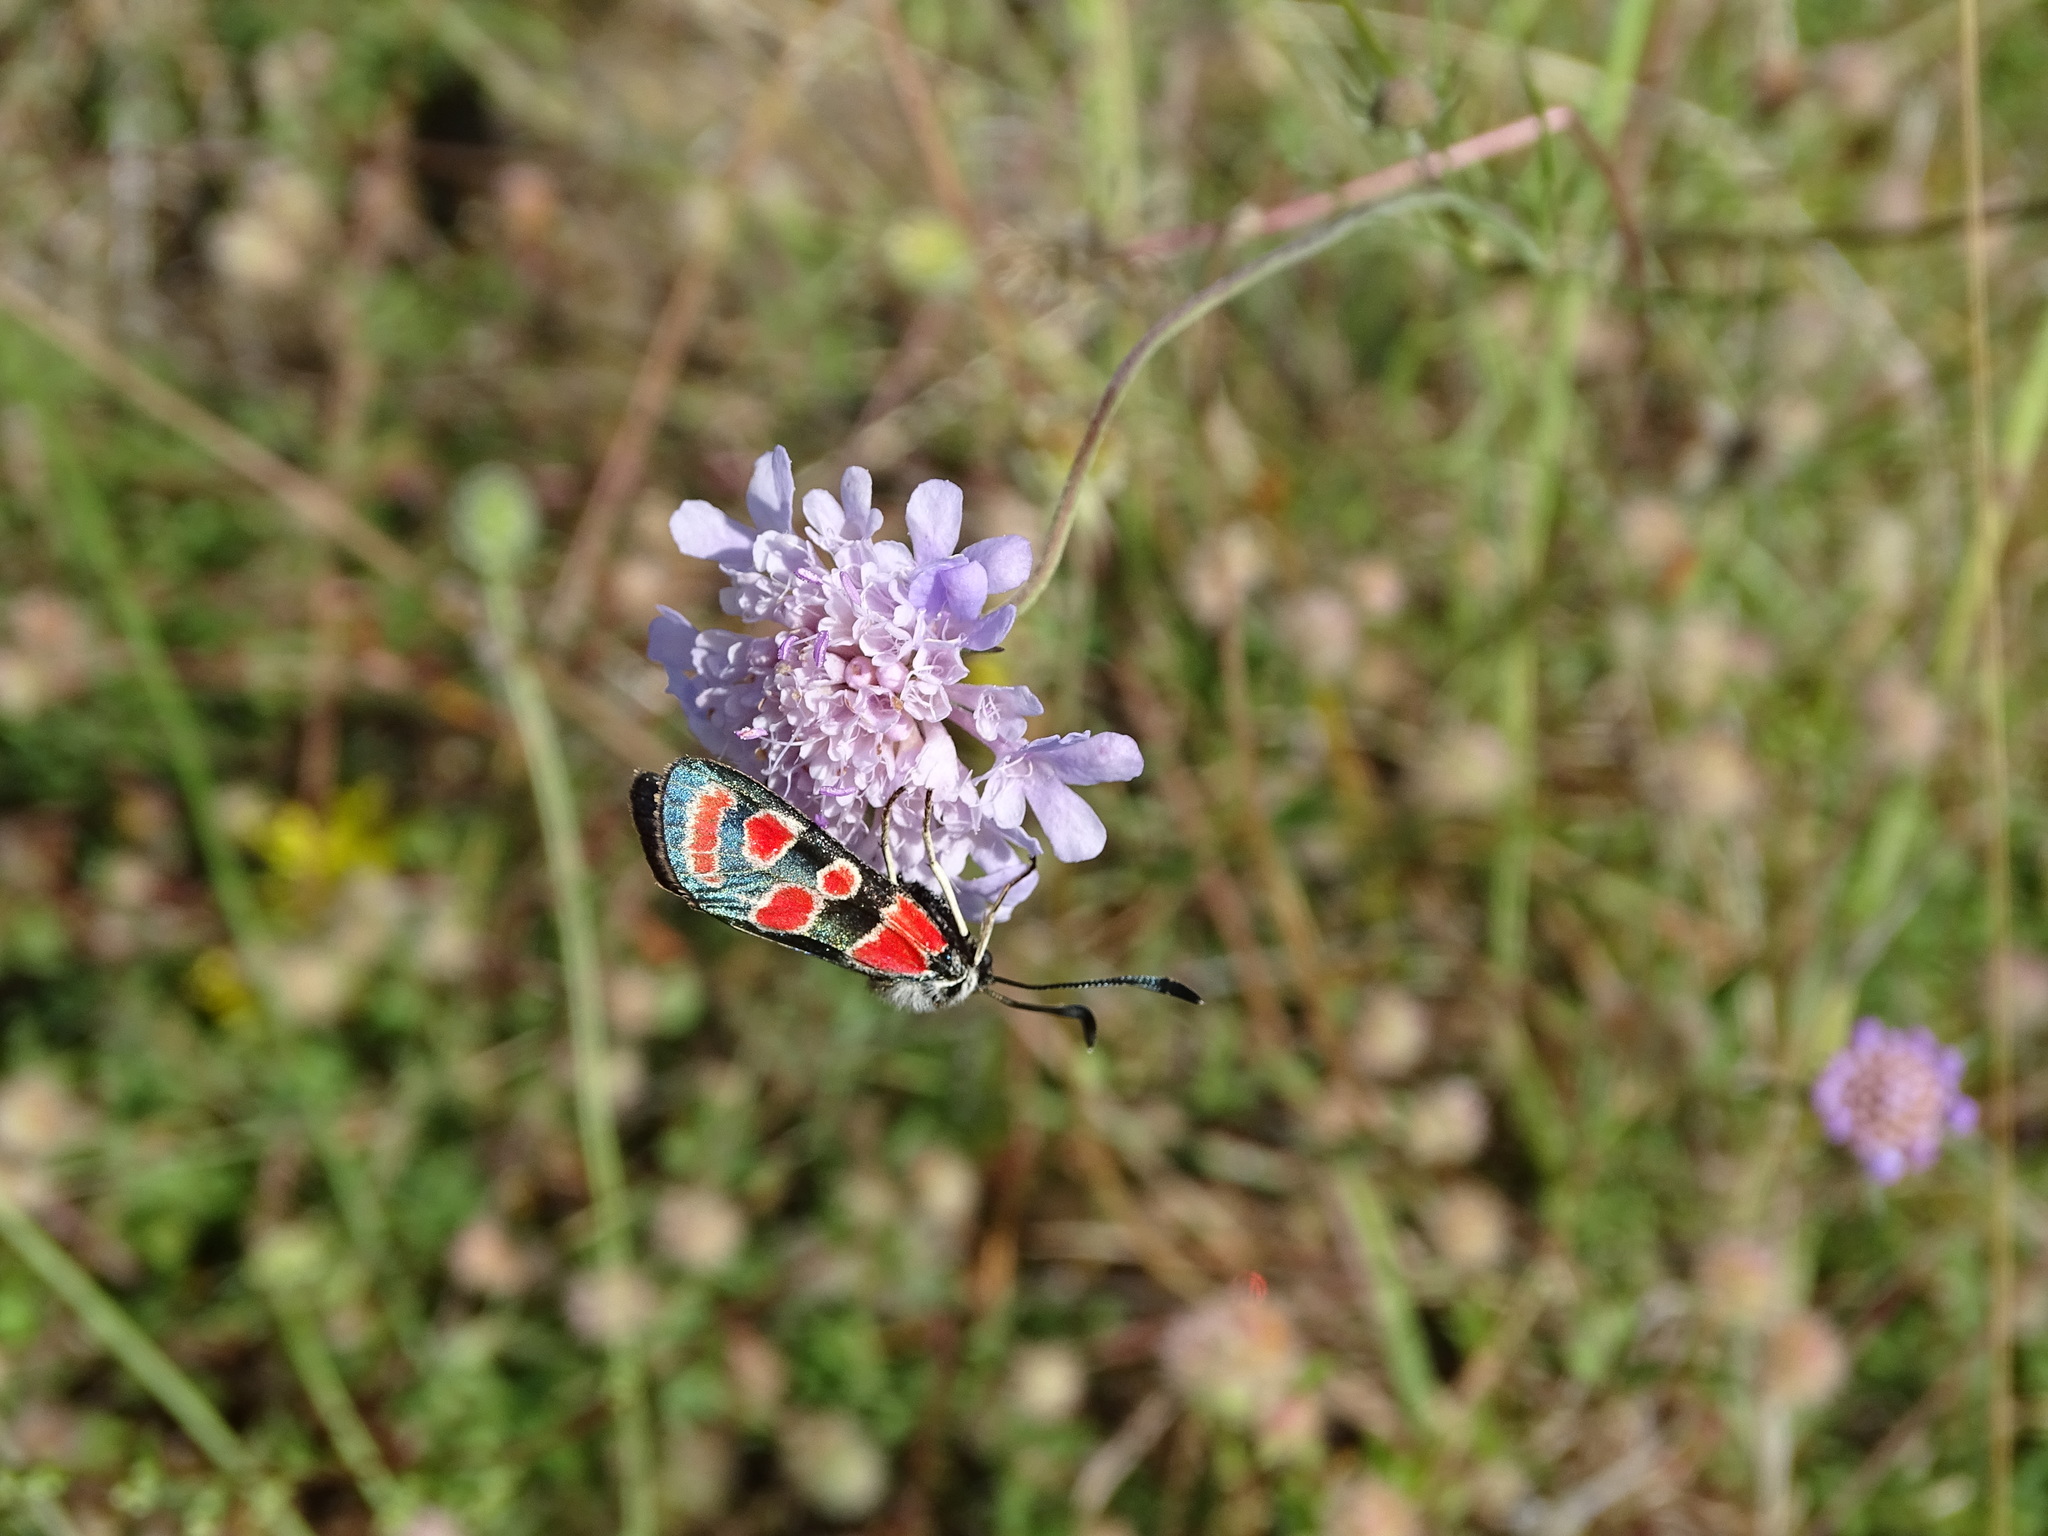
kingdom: Animalia
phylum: Arthropoda
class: Insecta
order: Lepidoptera
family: Zygaenidae
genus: Zygaena
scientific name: Zygaena carniolica
